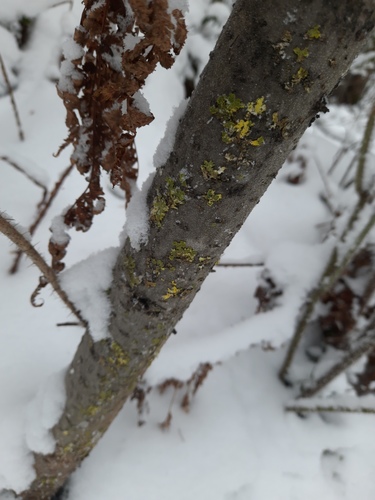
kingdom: Fungi
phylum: Ascomycota
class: Lecanoromycetes
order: Lecanorales
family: Parmeliaceae
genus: Vulpicida
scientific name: Vulpicida pinastri
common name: Powdered sunshine lichen
